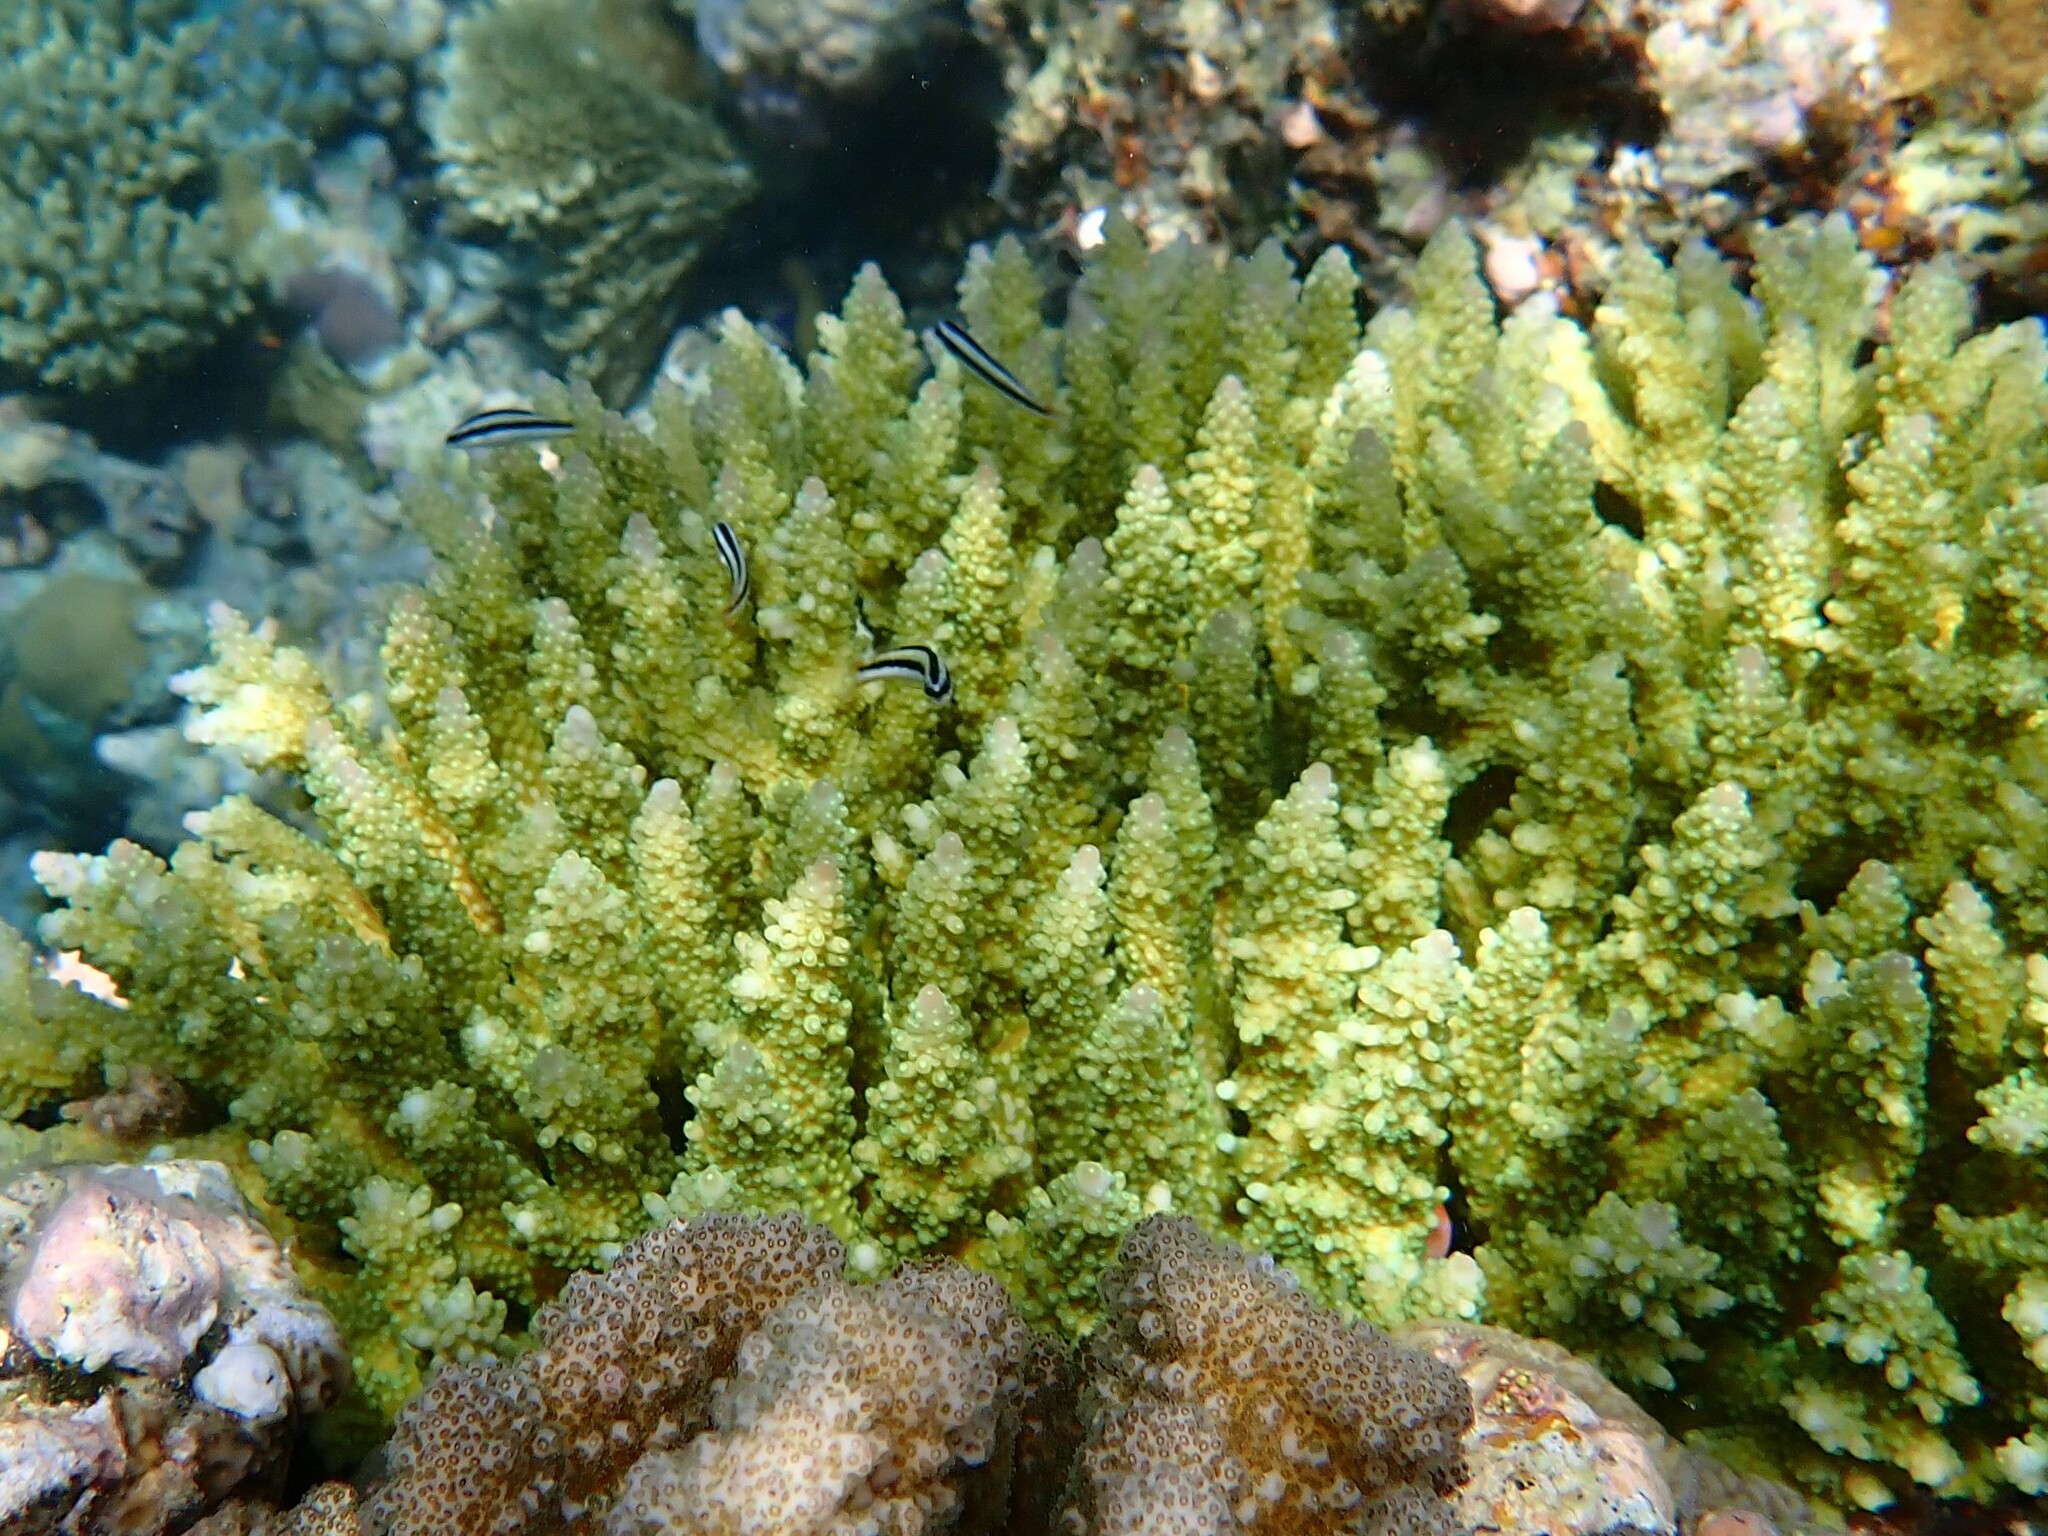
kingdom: Animalia
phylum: Chordata
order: Perciformes
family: Labridae
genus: Thalassoma
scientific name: Thalassoma amblycephalum
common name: Bluehead wrasse
